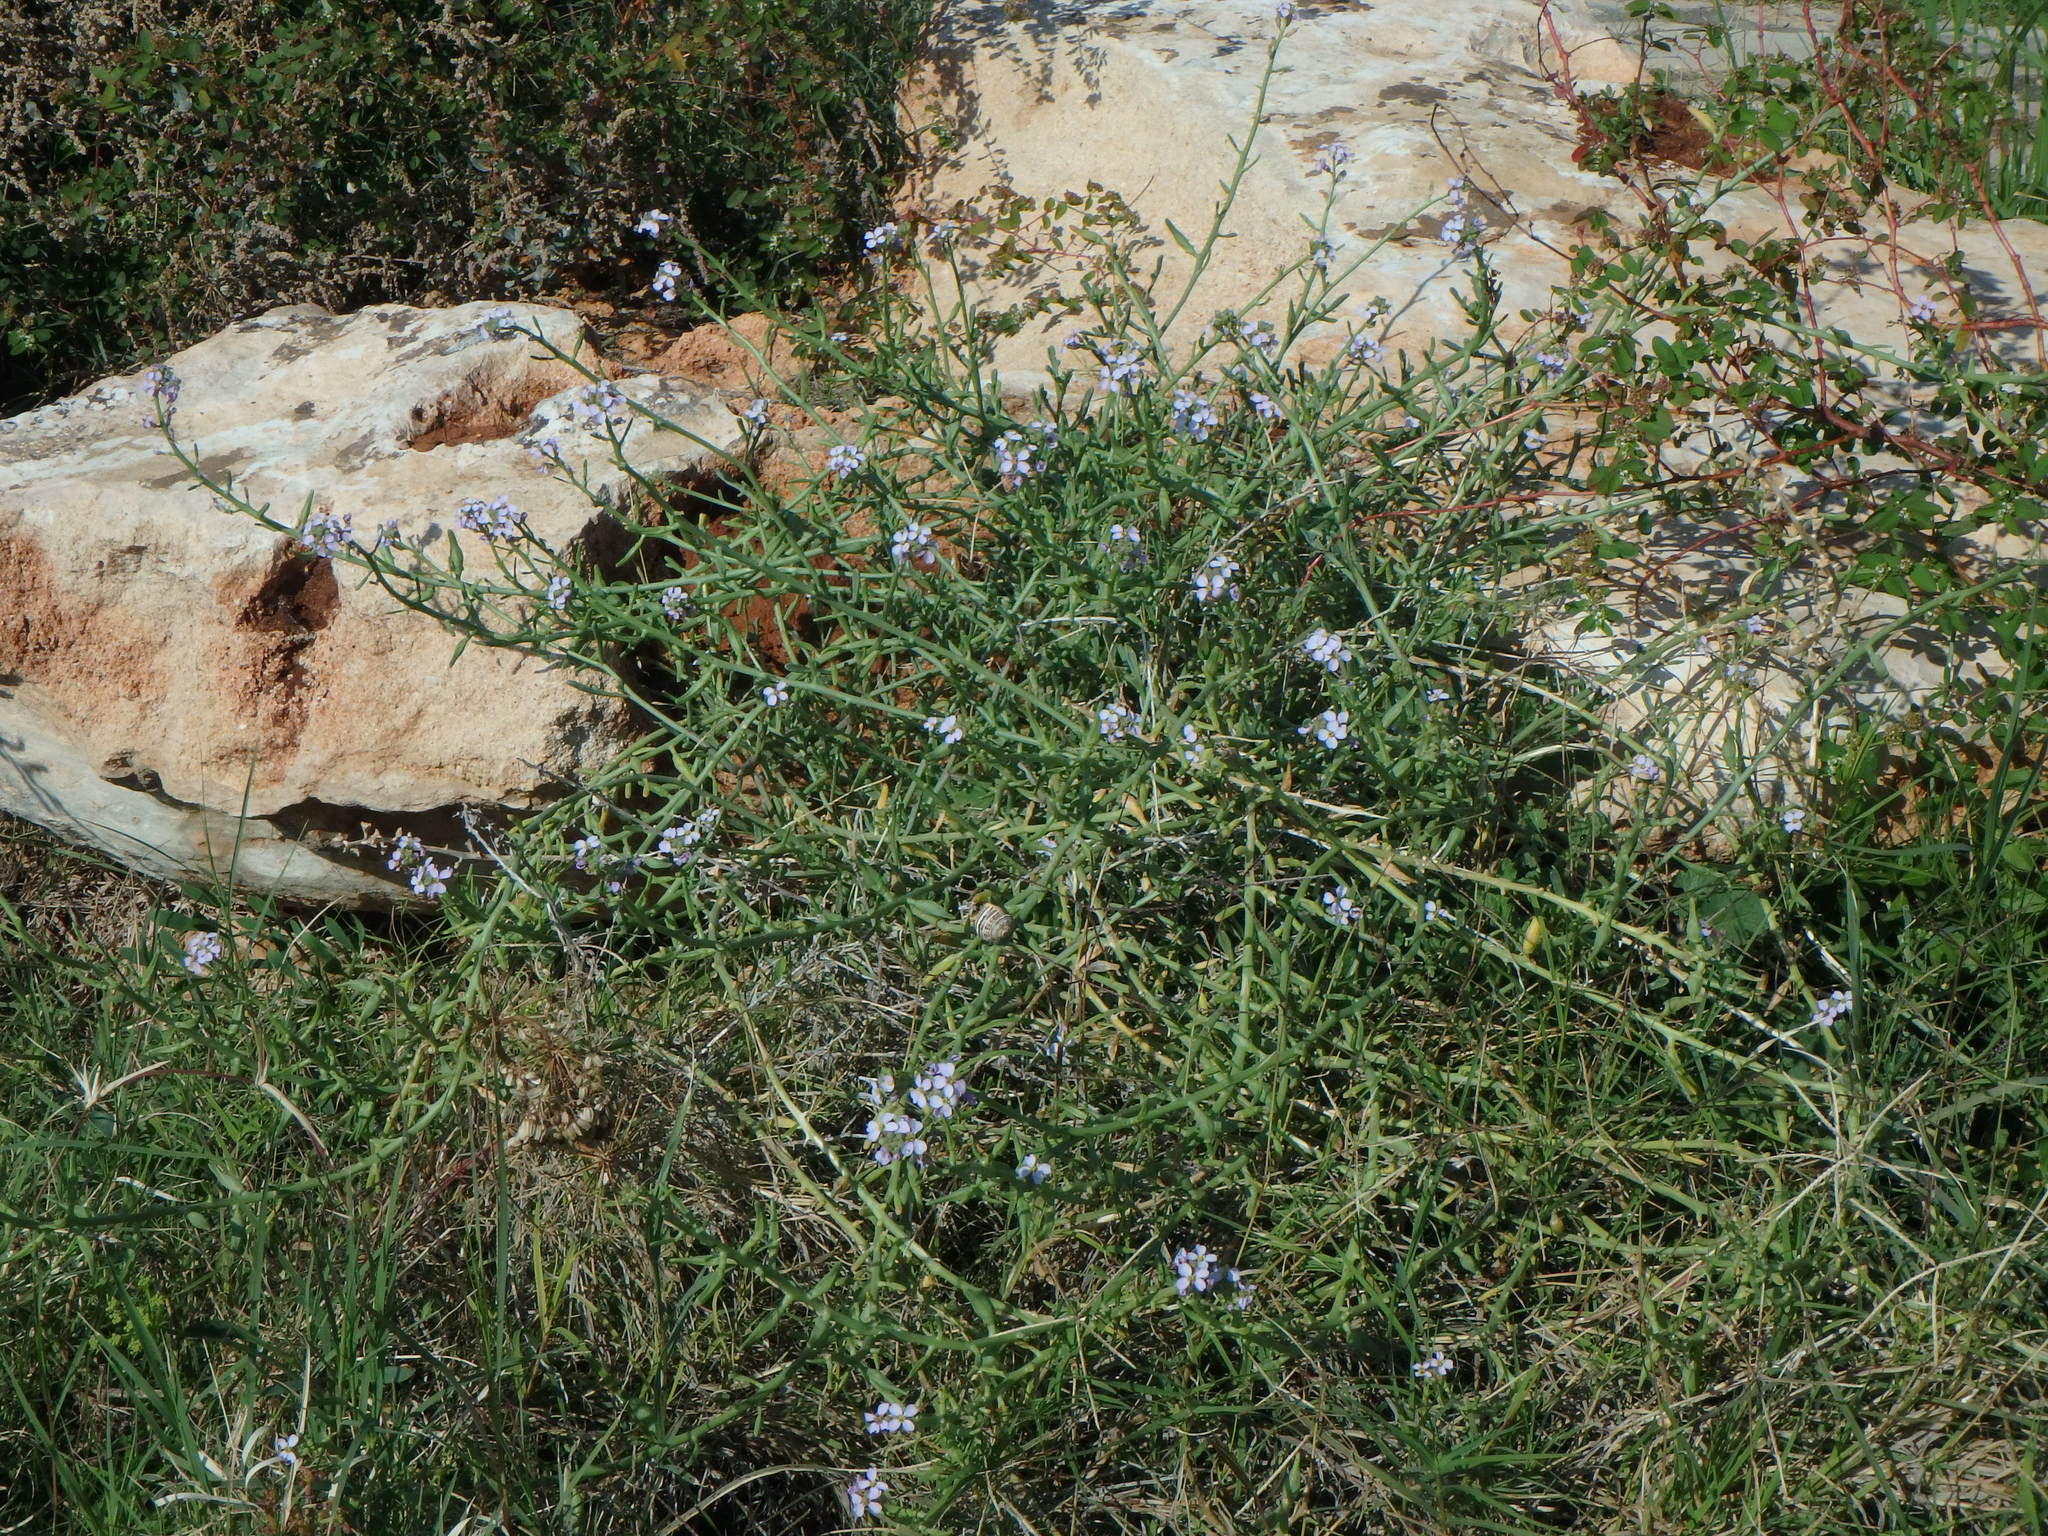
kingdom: Plantae
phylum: Tracheophyta
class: Magnoliopsida
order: Brassicales
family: Brassicaceae
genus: Cakile
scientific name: Cakile maritima
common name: Sea rocket
